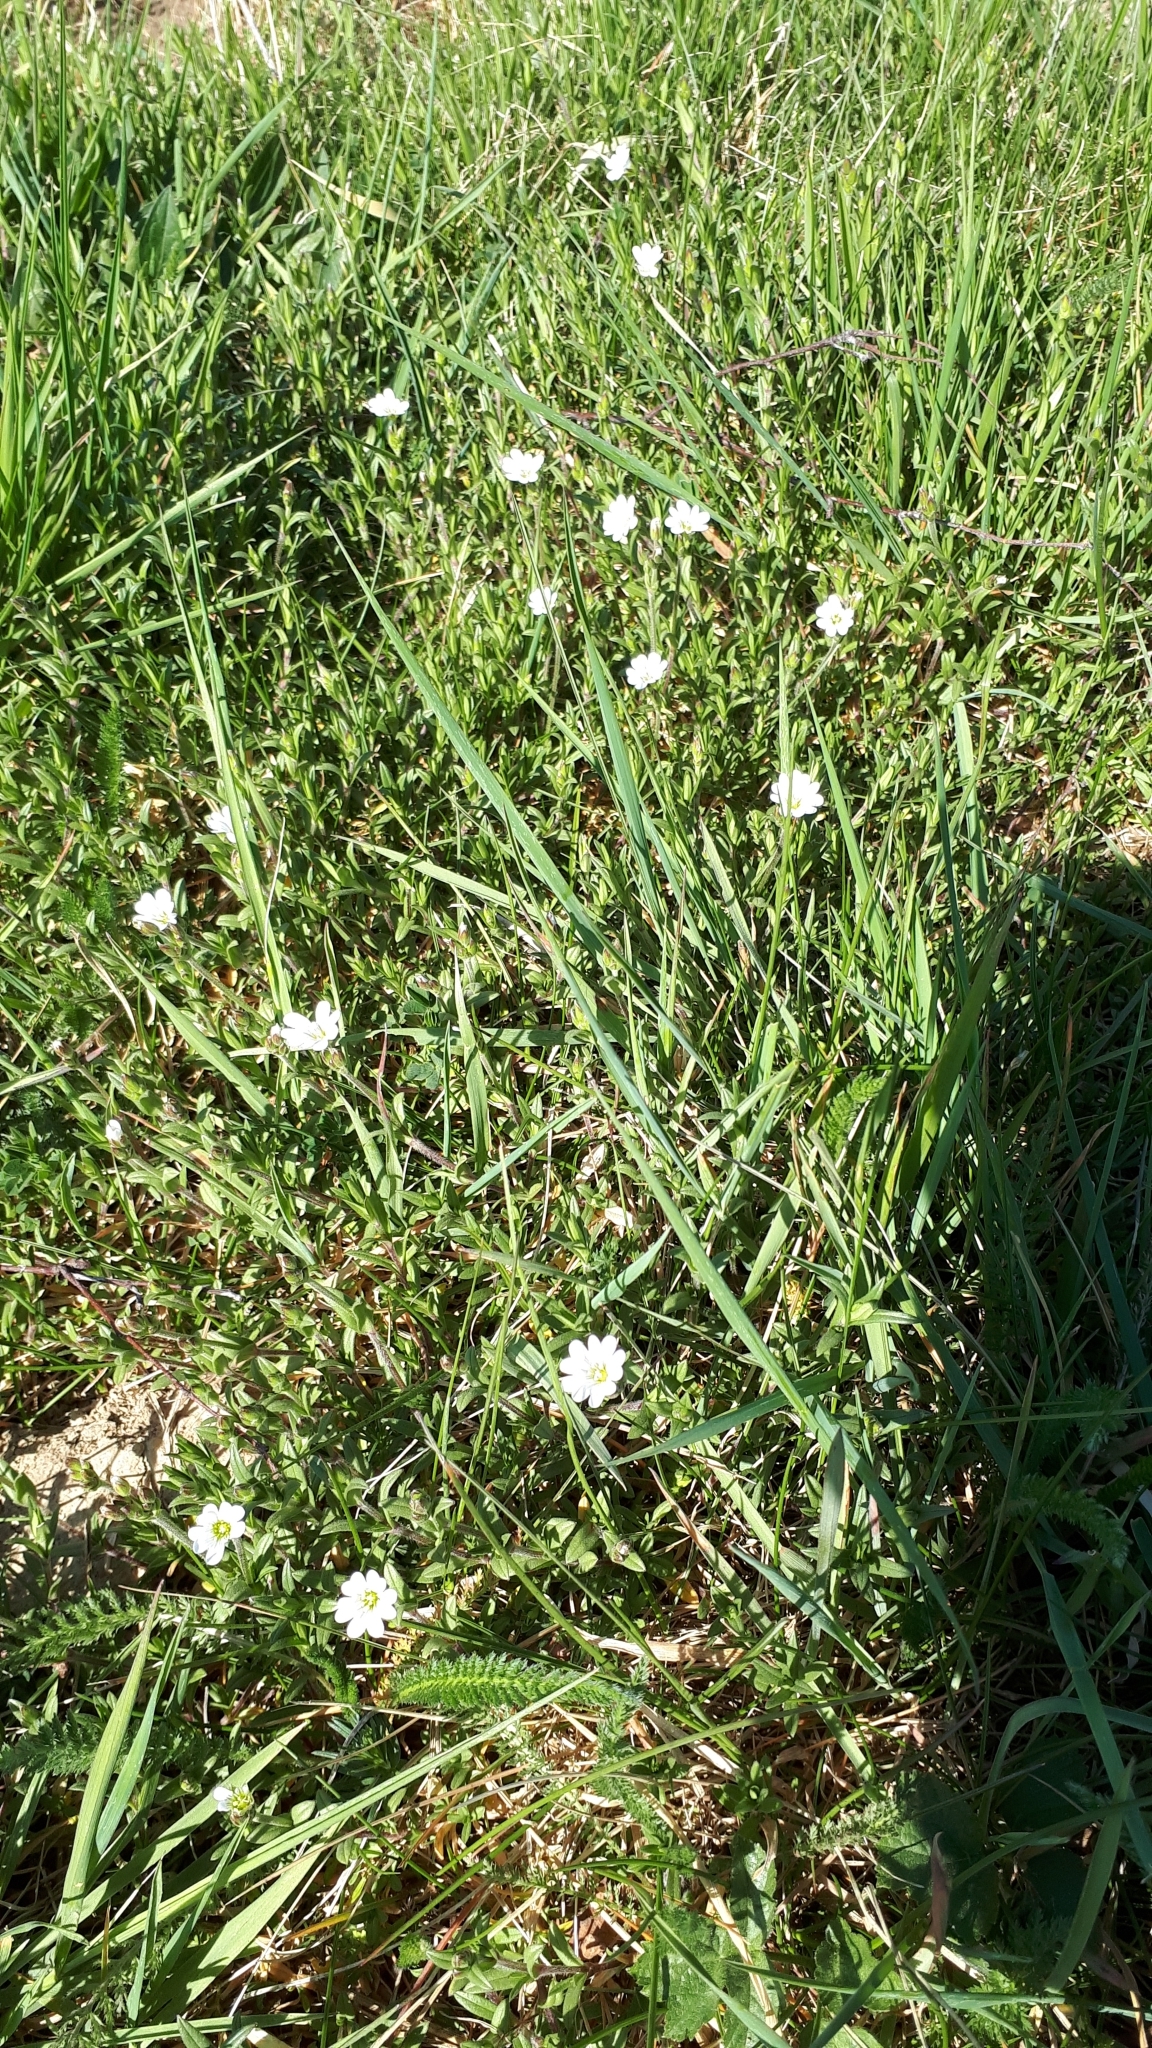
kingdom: Plantae
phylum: Tracheophyta
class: Magnoliopsida
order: Caryophyllales
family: Caryophyllaceae
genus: Cerastium
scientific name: Cerastium arvense
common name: Field mouse-ear
